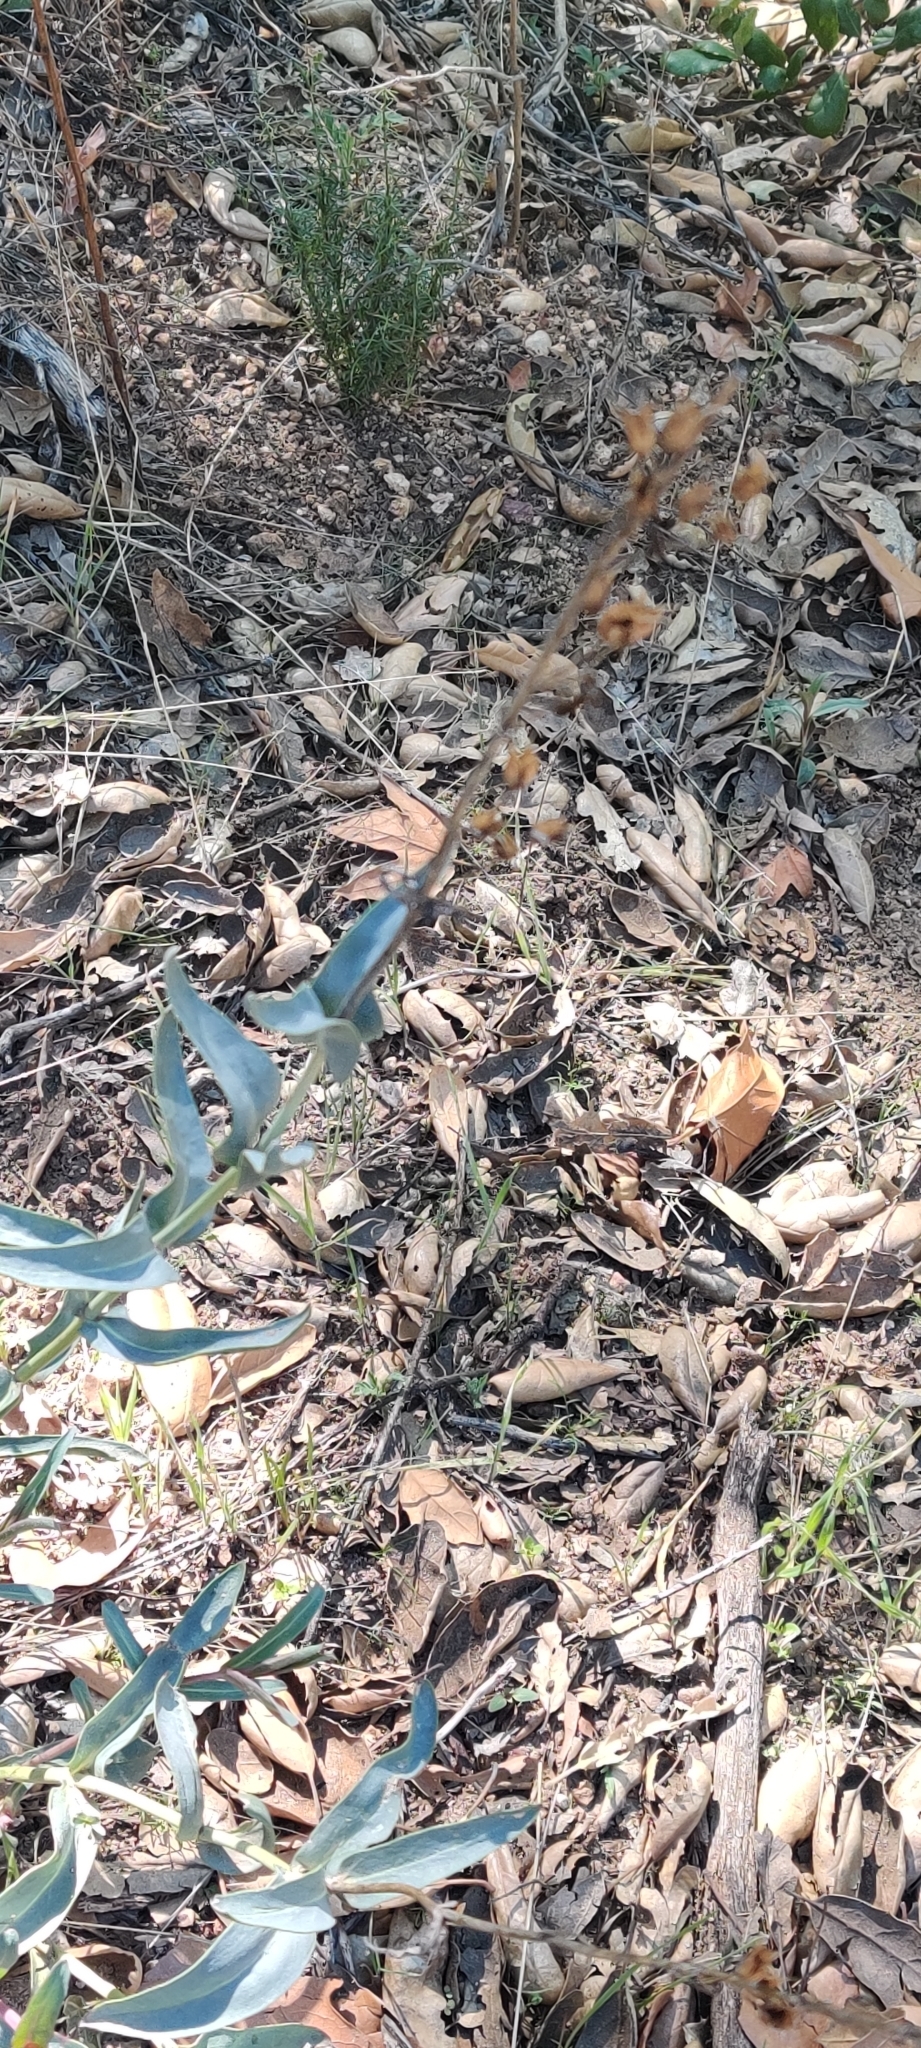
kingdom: Plantae
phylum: Tracheophyta
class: Magnoliopsida
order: Lamiales
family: Plantaginaceae
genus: Penstemon
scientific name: Penstemon centranthifolius
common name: Scarlet bugler
